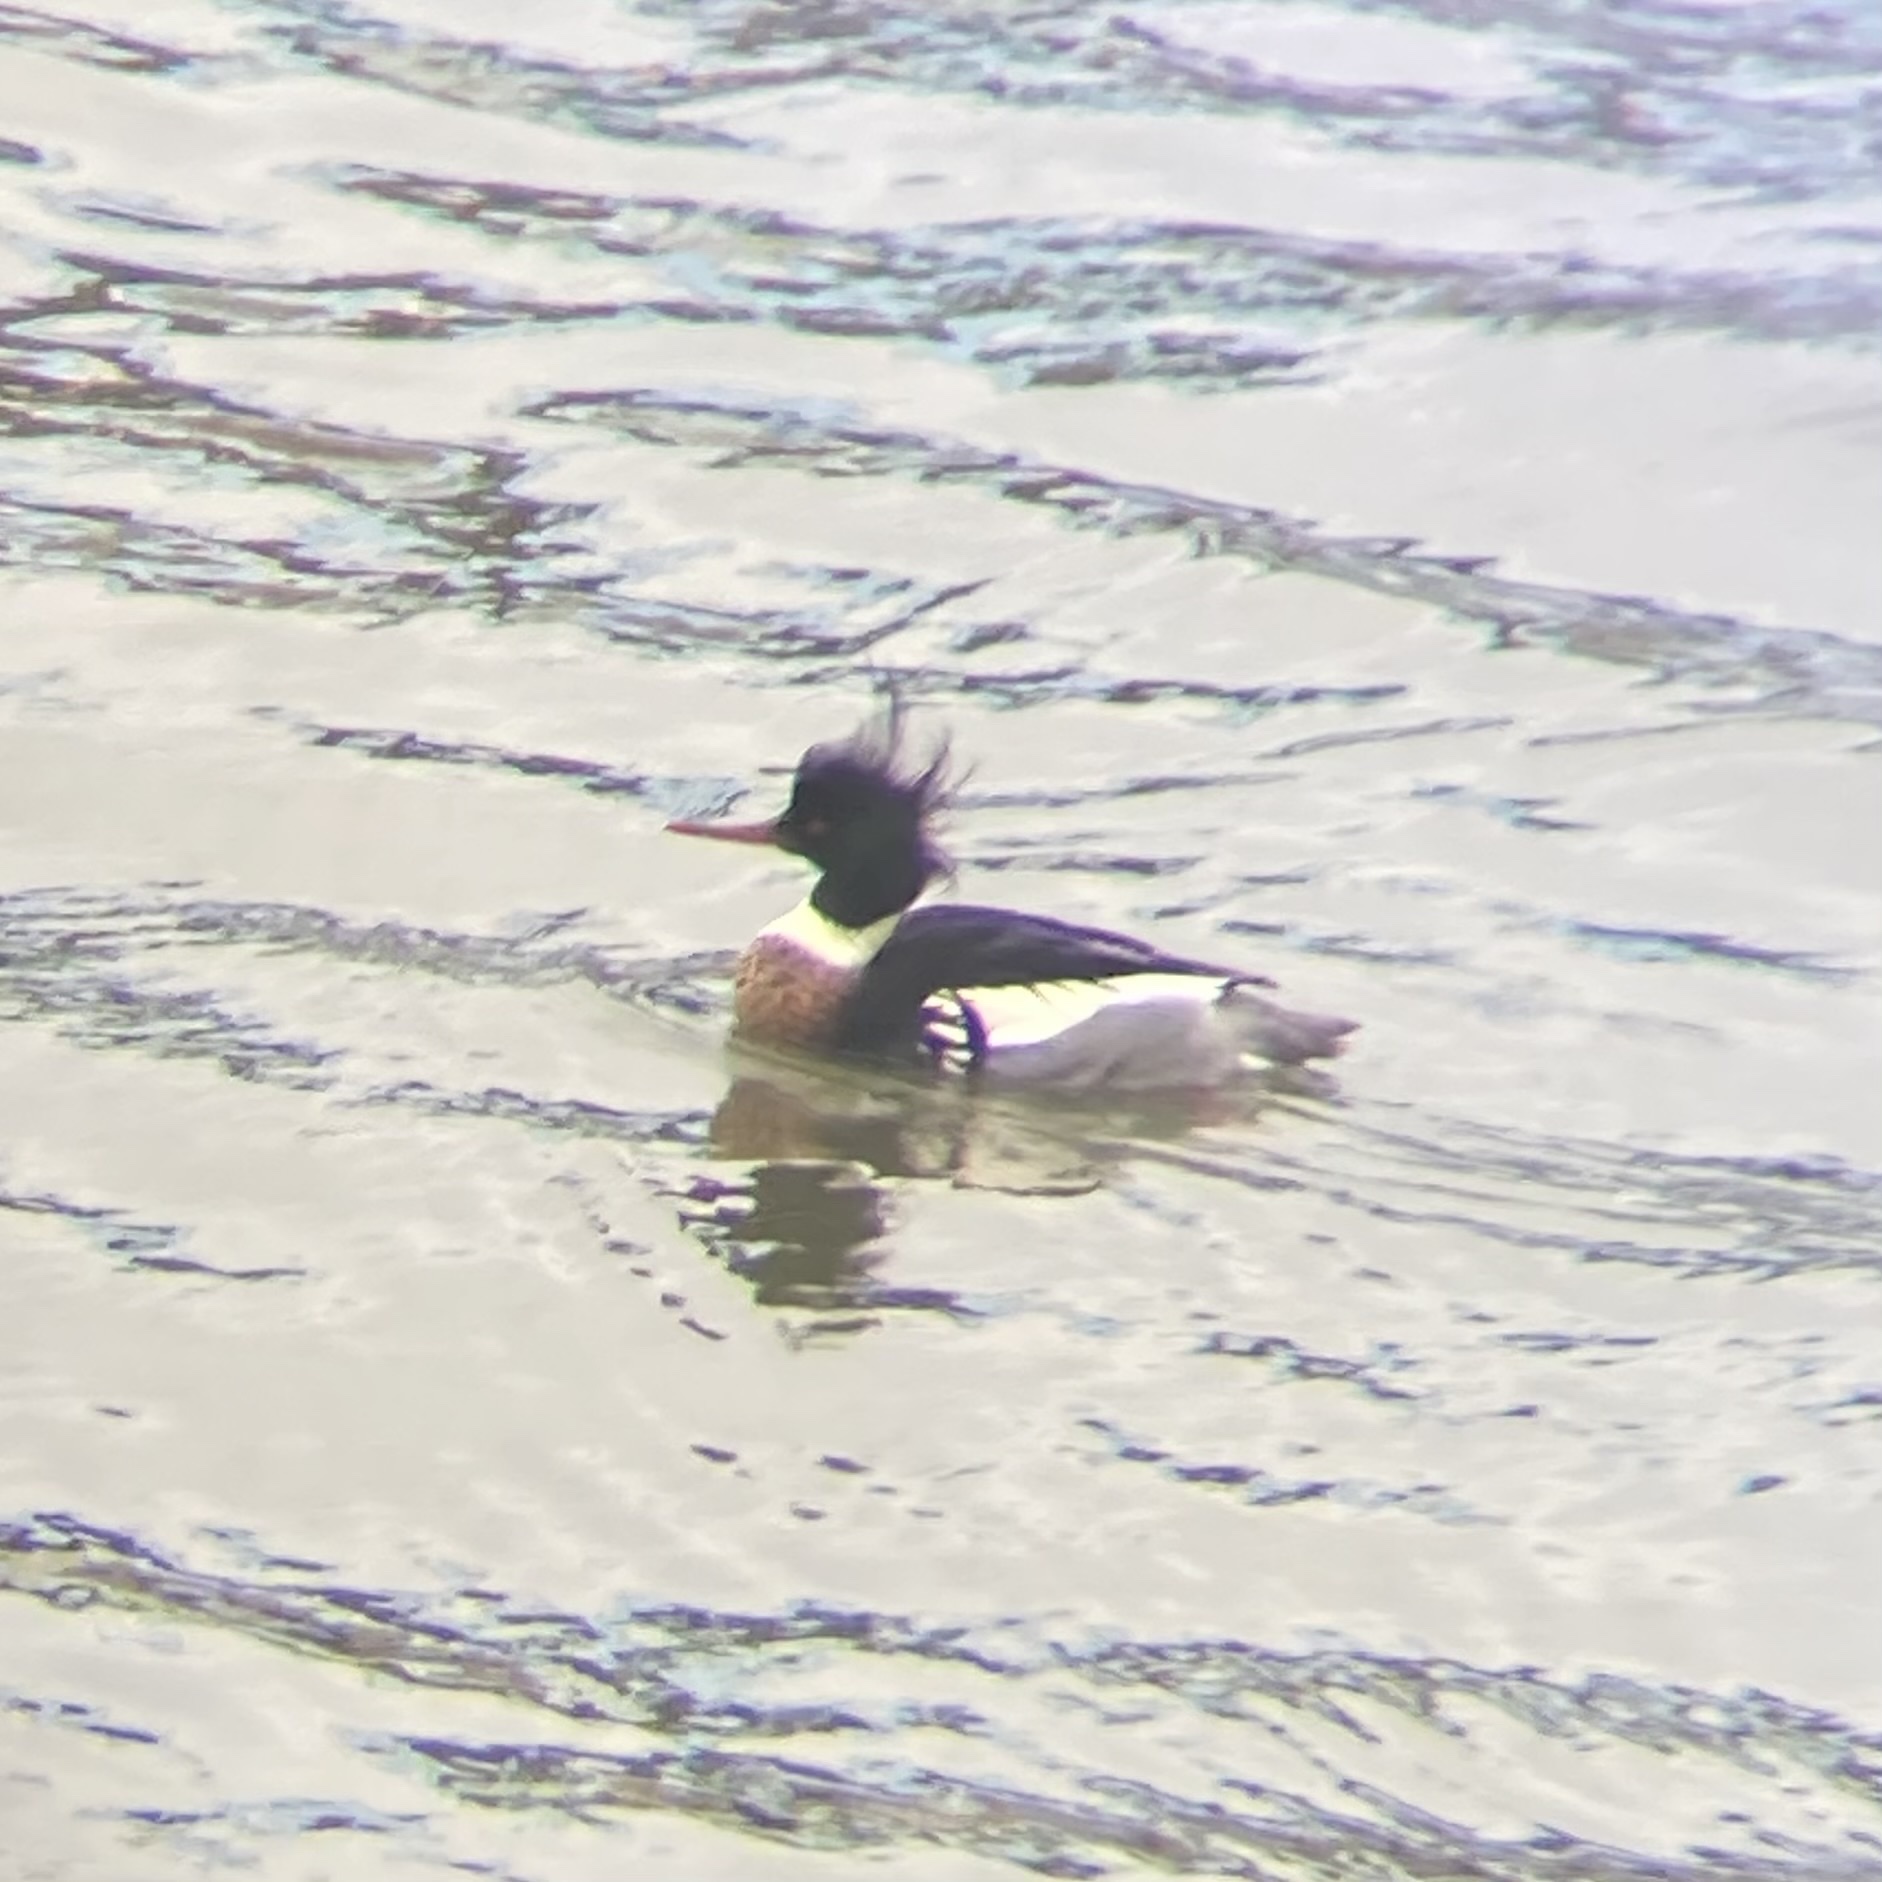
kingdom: Animalia
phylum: Chordata
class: Aves
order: Anseriformes
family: Anatidae
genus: Mergus
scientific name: Mergus serrator
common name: Red-breasted merganser
